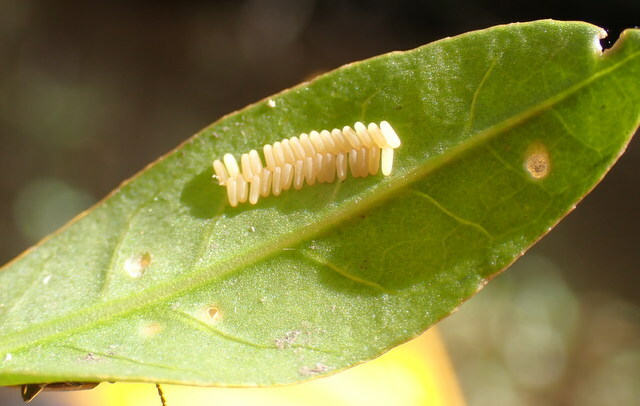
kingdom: Animalia
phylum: Arthropoda
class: Insecta
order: Coleoptera
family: Chrysomelidae
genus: Agasicles
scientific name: Agasicles hygrophila
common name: Alligatorweed flea beetle
